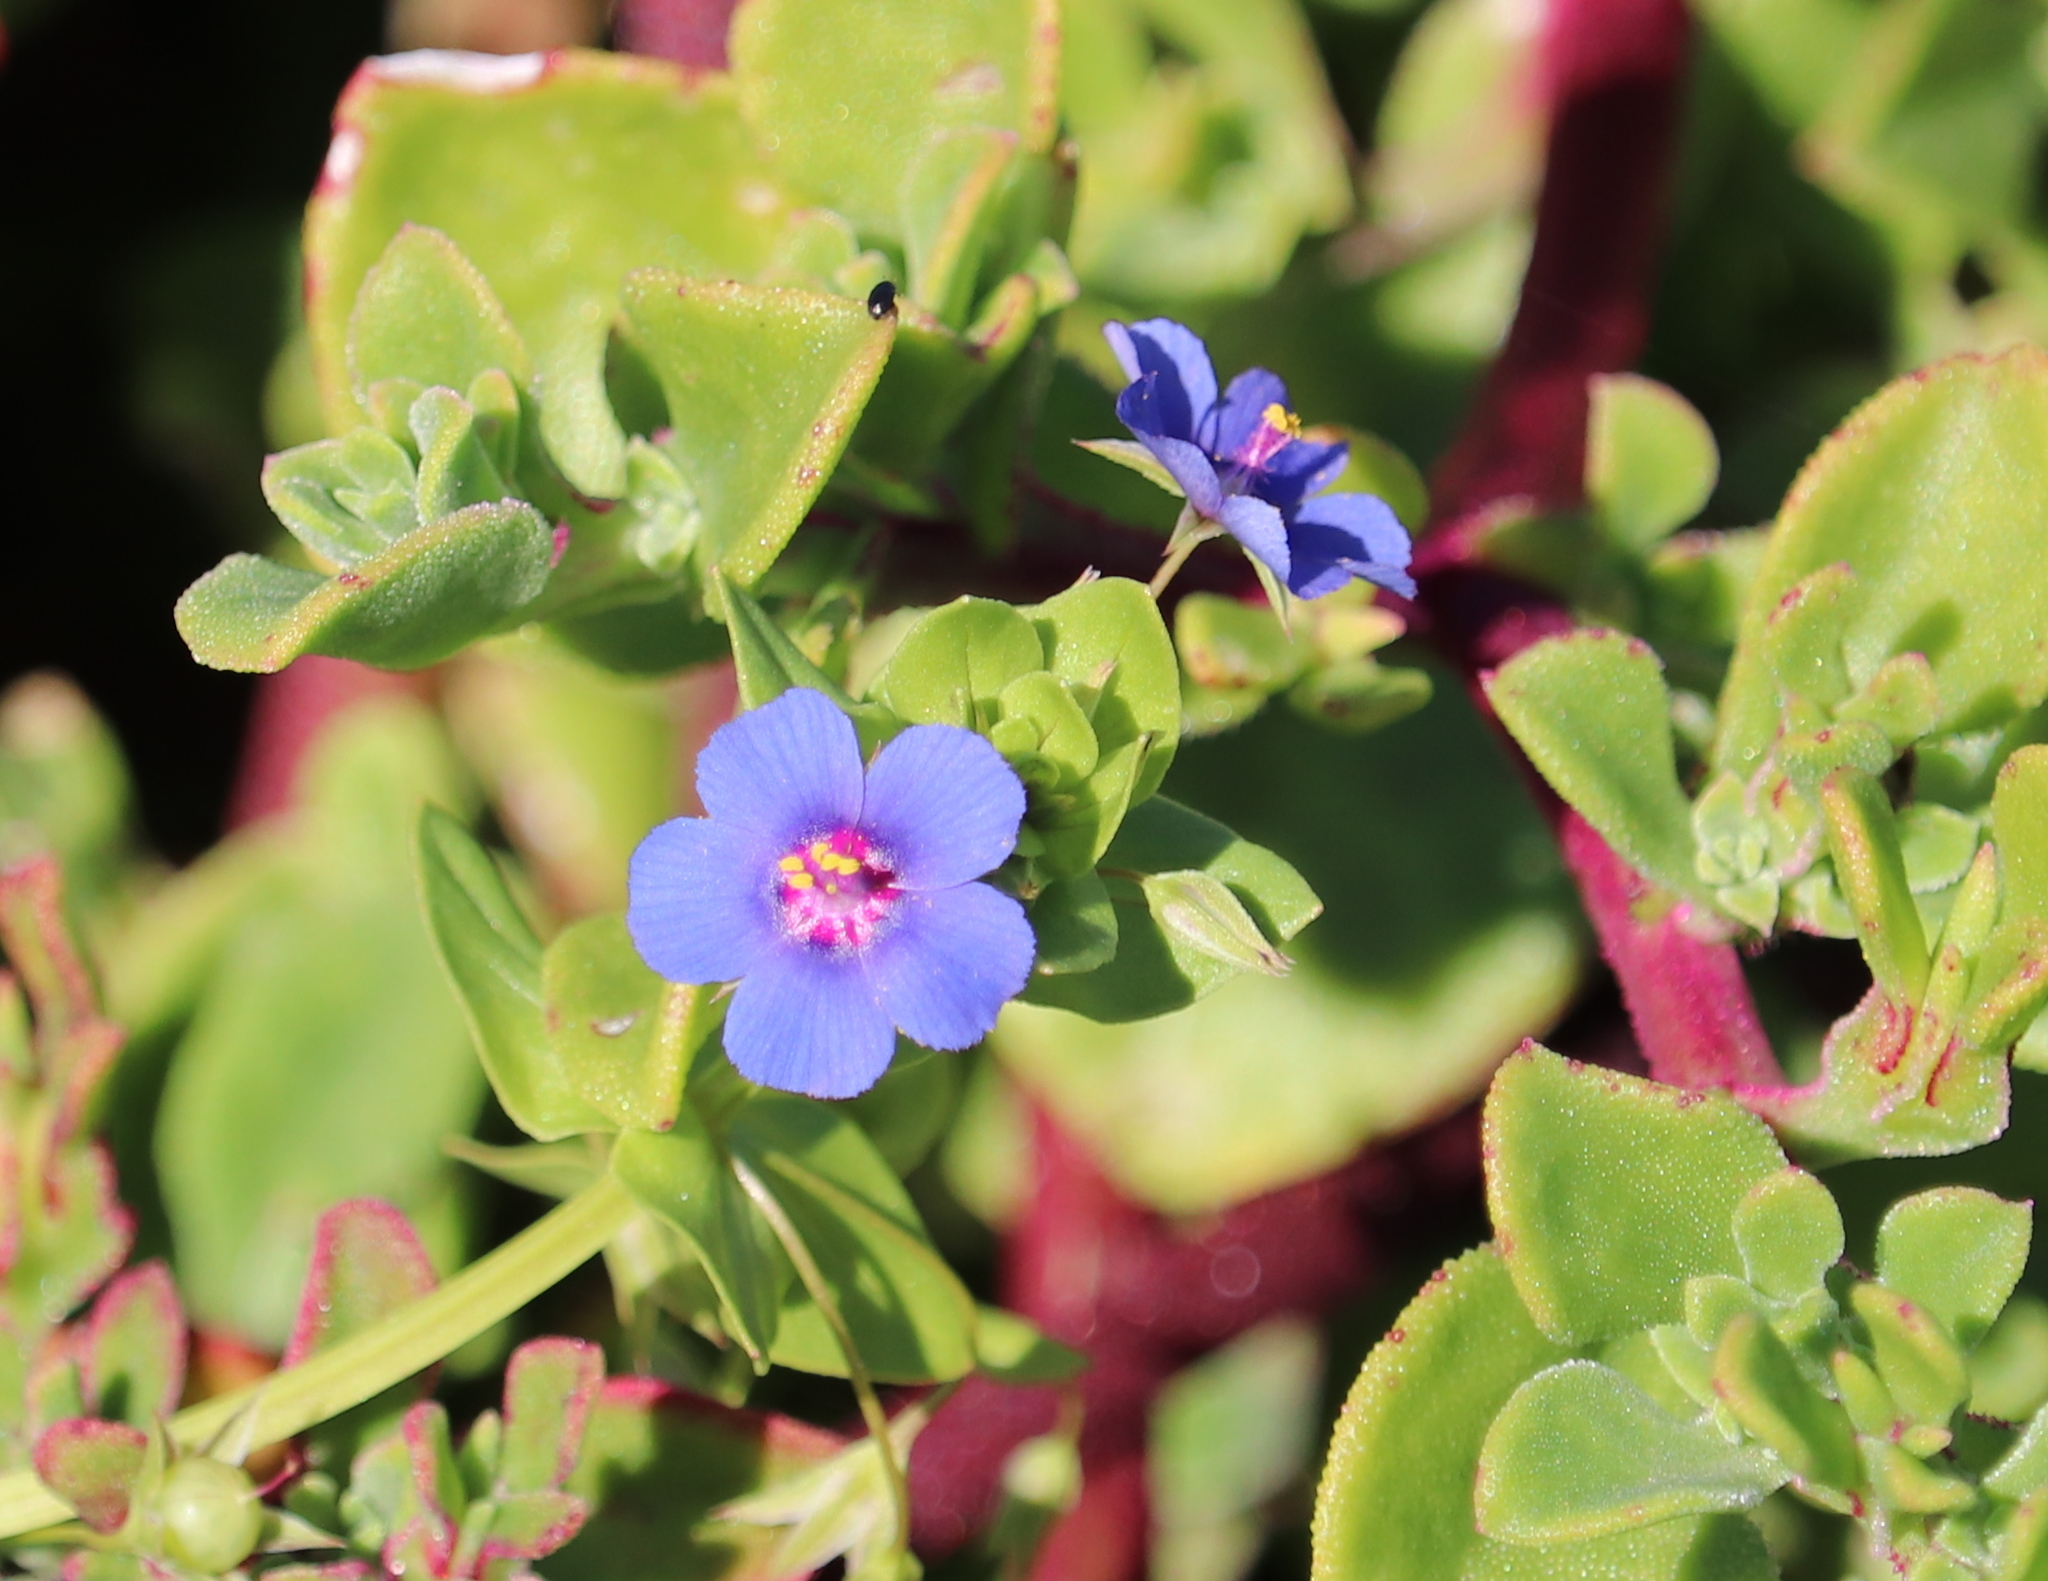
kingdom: Plantae
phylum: Tracheophyta
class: Magnoliopsida
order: Ericales
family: Primulaceae
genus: Lysimachia
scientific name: Lysimachia loeflingii
